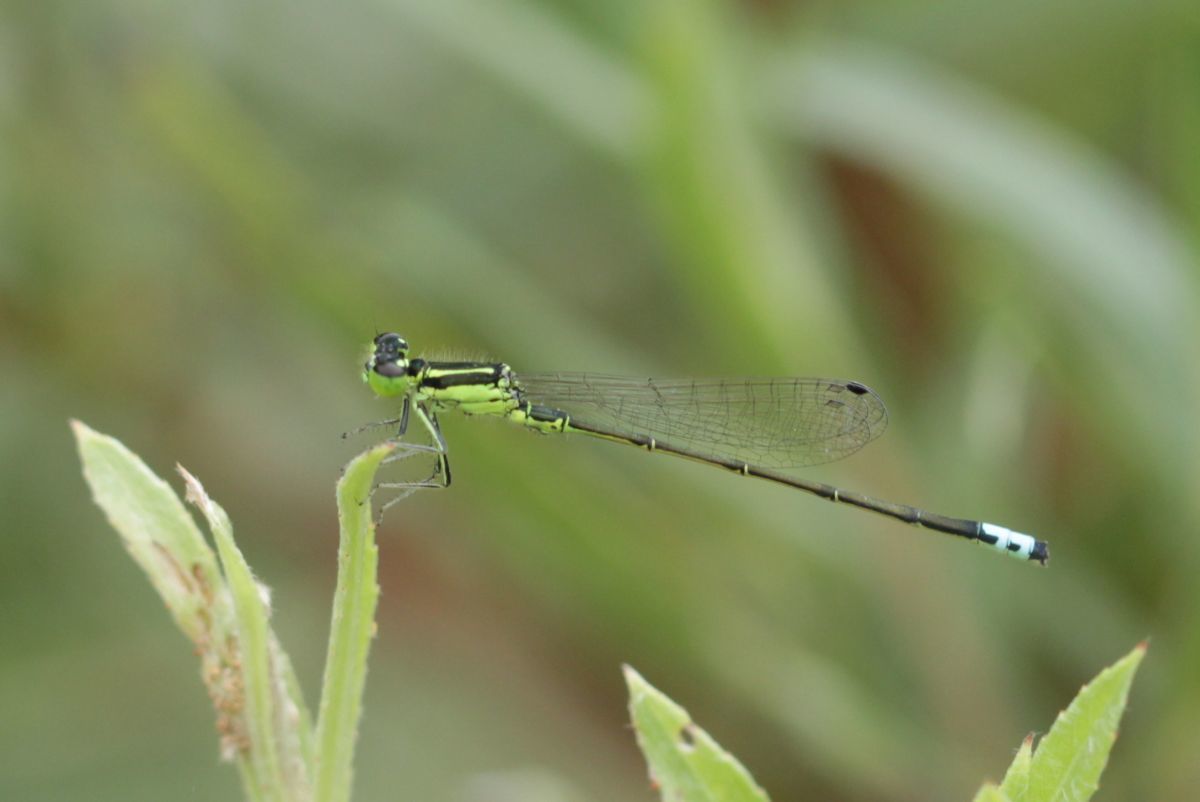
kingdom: Animalia
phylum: Arthropoda
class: Insecta
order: Odonata
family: Coenagrionidae
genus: Ischnura
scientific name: Ischnura verticalis
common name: Eastern forktail
